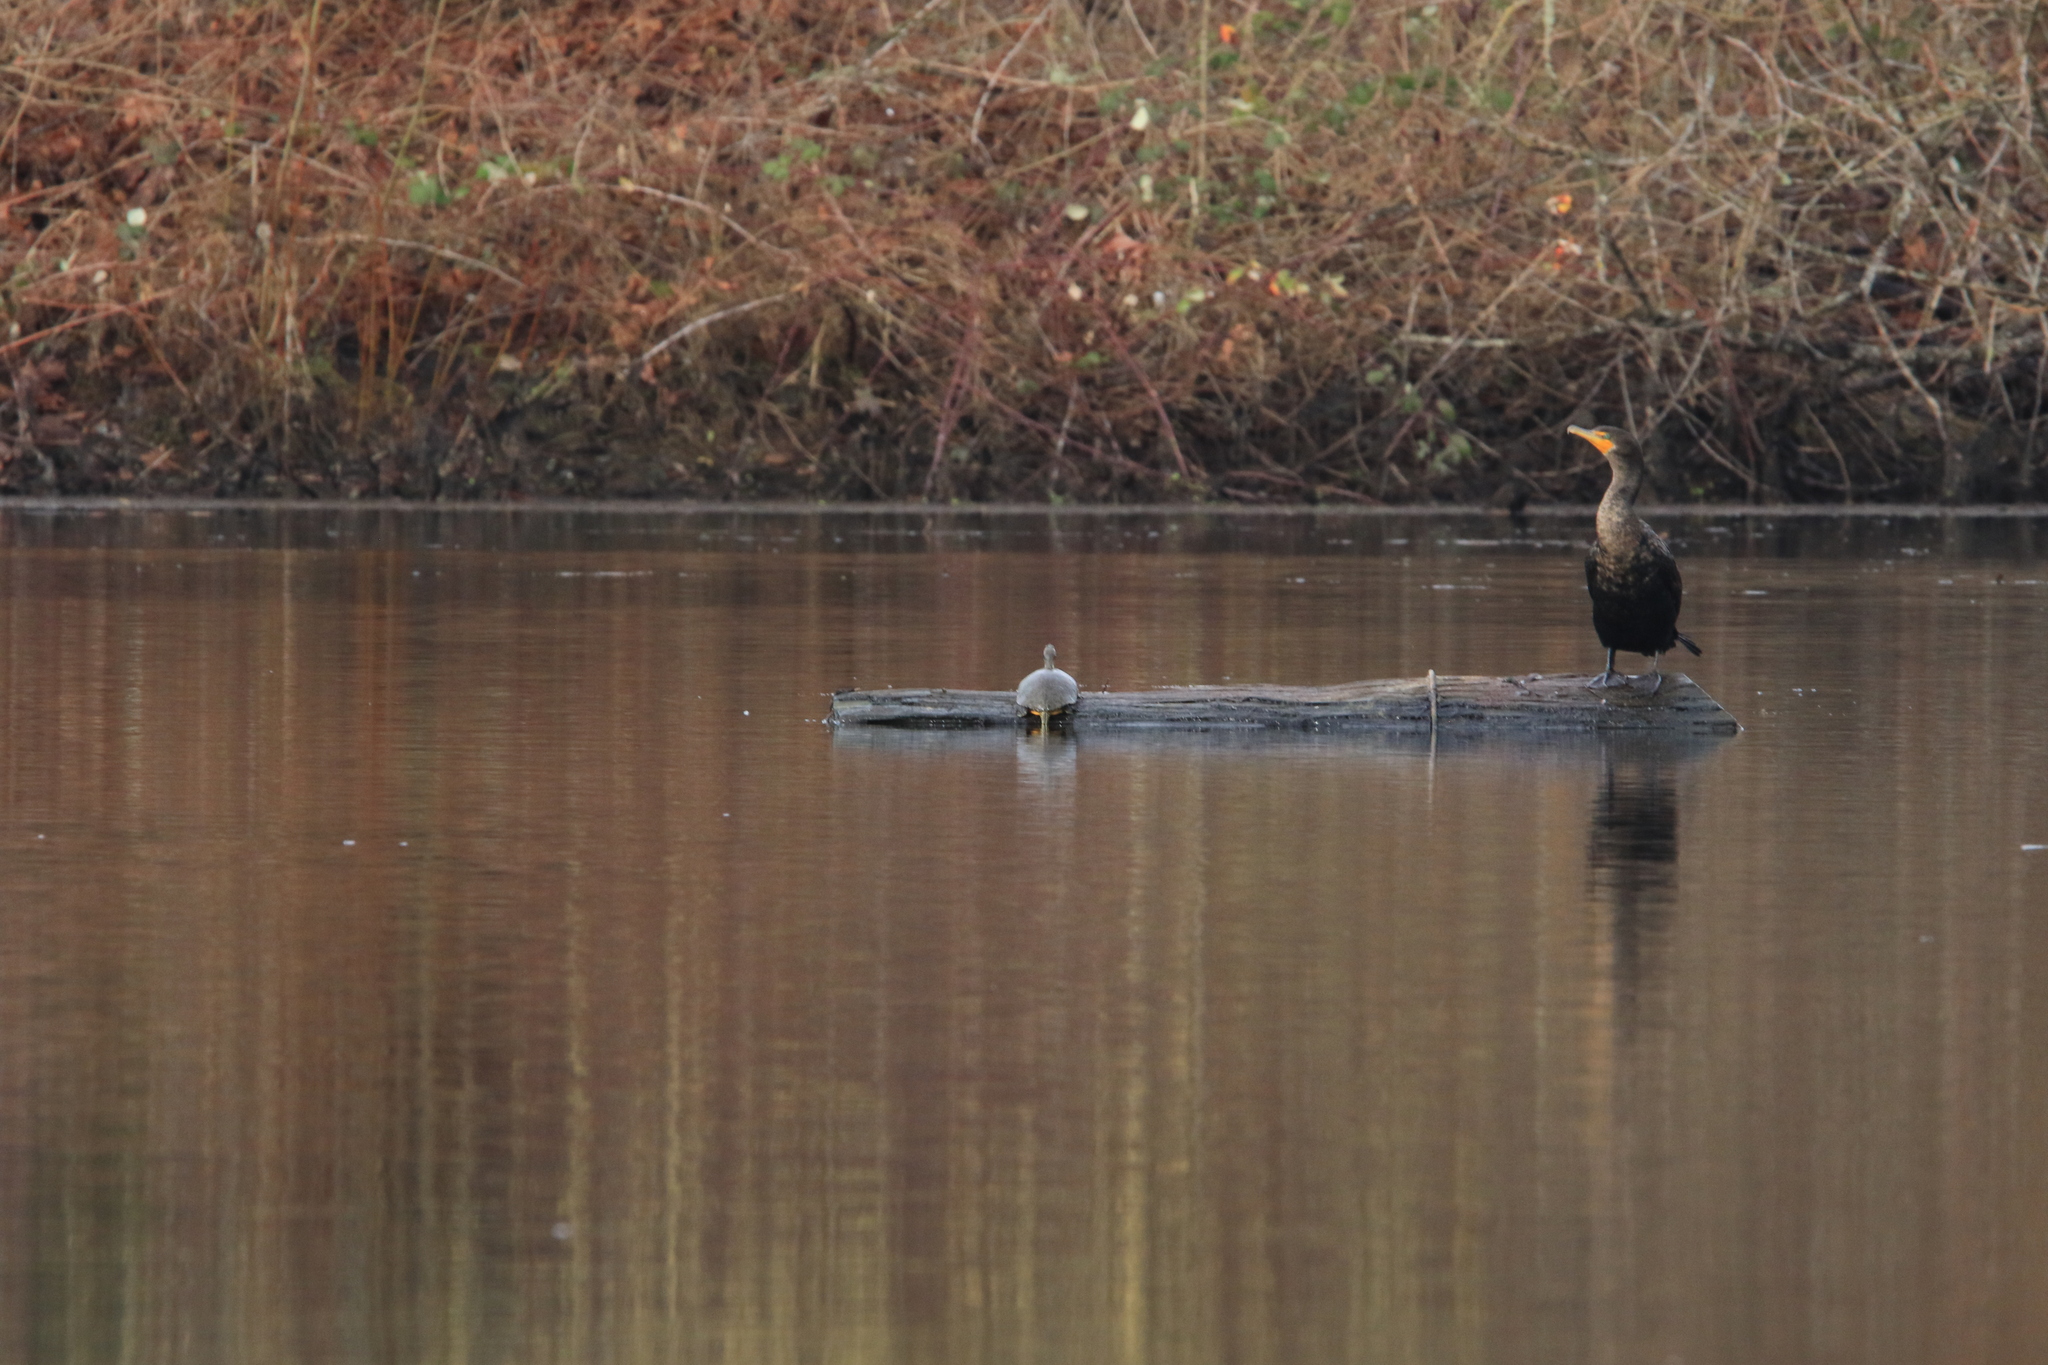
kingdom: Animalia
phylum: Chordata
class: Testudines
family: Emydidae
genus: Trachemys
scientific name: Trachemys scripta
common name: Slider
